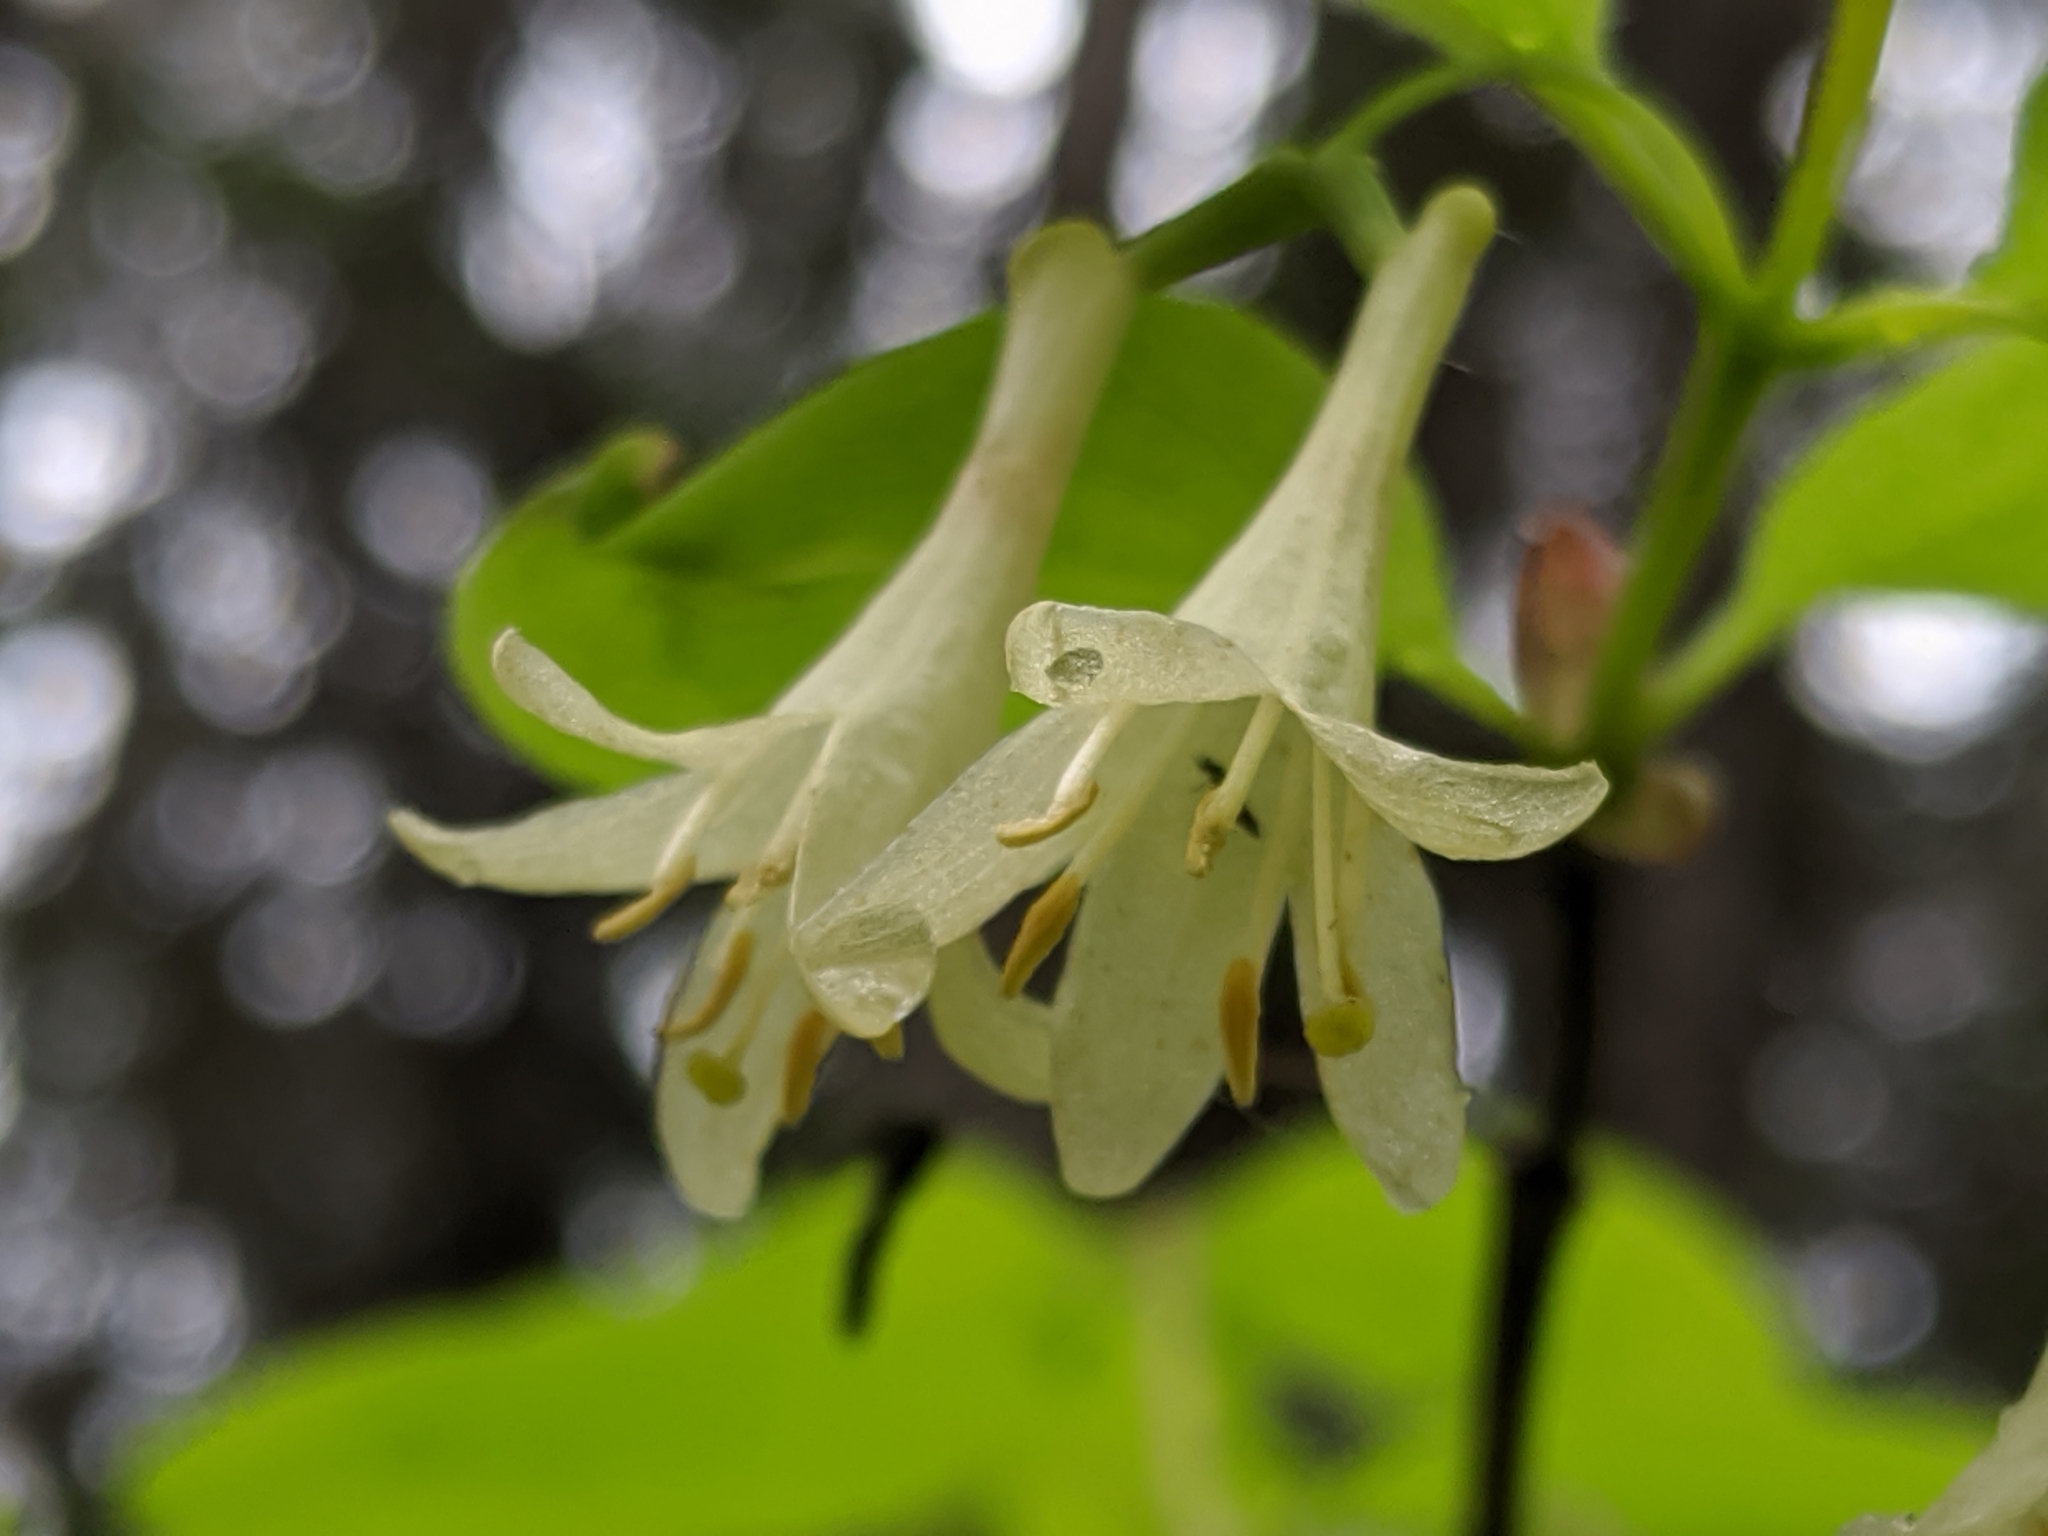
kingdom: Plantae
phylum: Tracheophyta
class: Magnoliopsida
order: Dipsacales
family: Caprifoliaceae
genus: Lonicera
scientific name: Lonicera utahensis
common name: Utah honeysuckle
